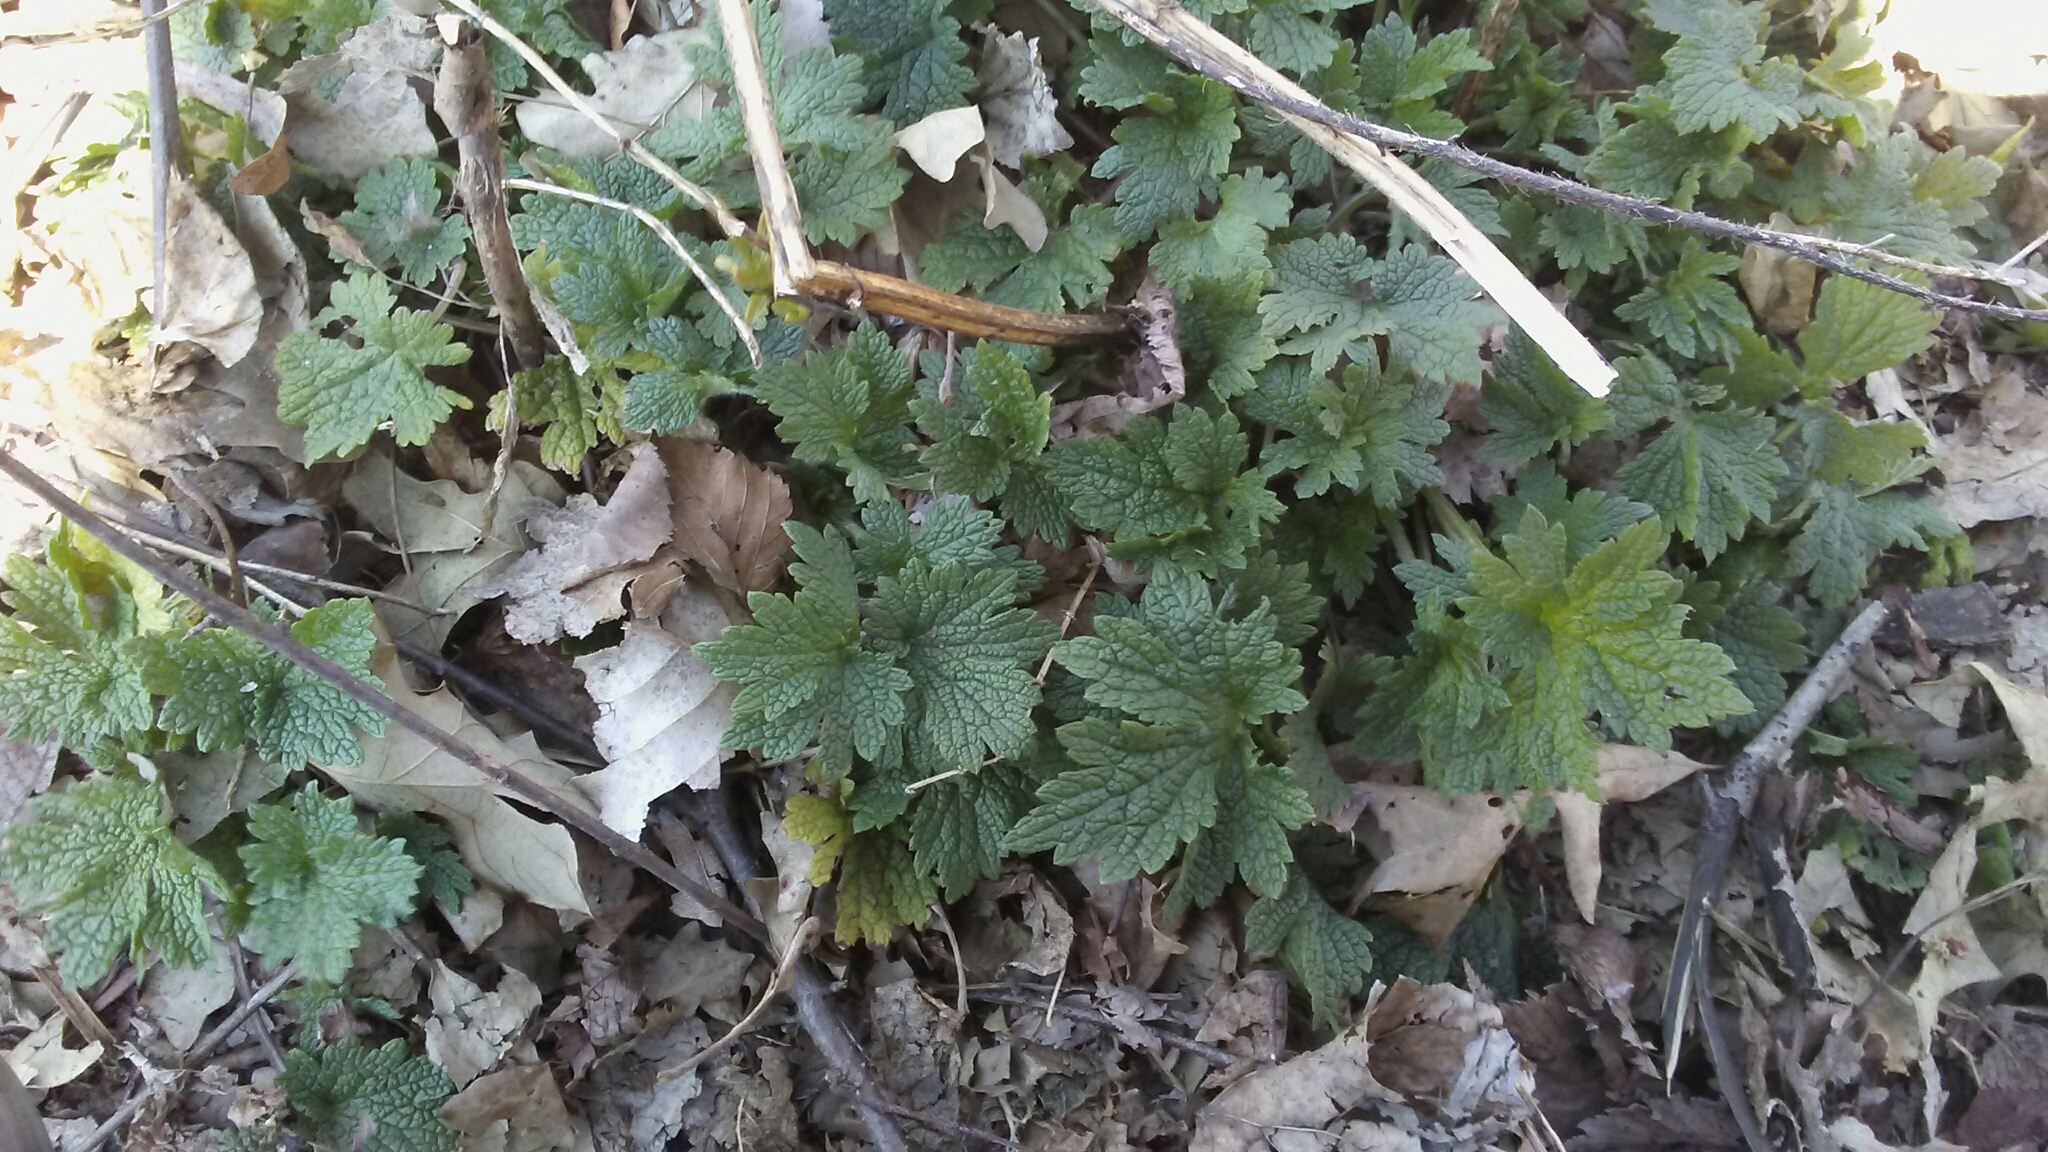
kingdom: Plantae
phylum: Tracheophyta
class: Magnoliopsida
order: Lamiales
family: Lamiaceae
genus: Leonurus
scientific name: Leonurus cardiaca
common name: Motherwort
